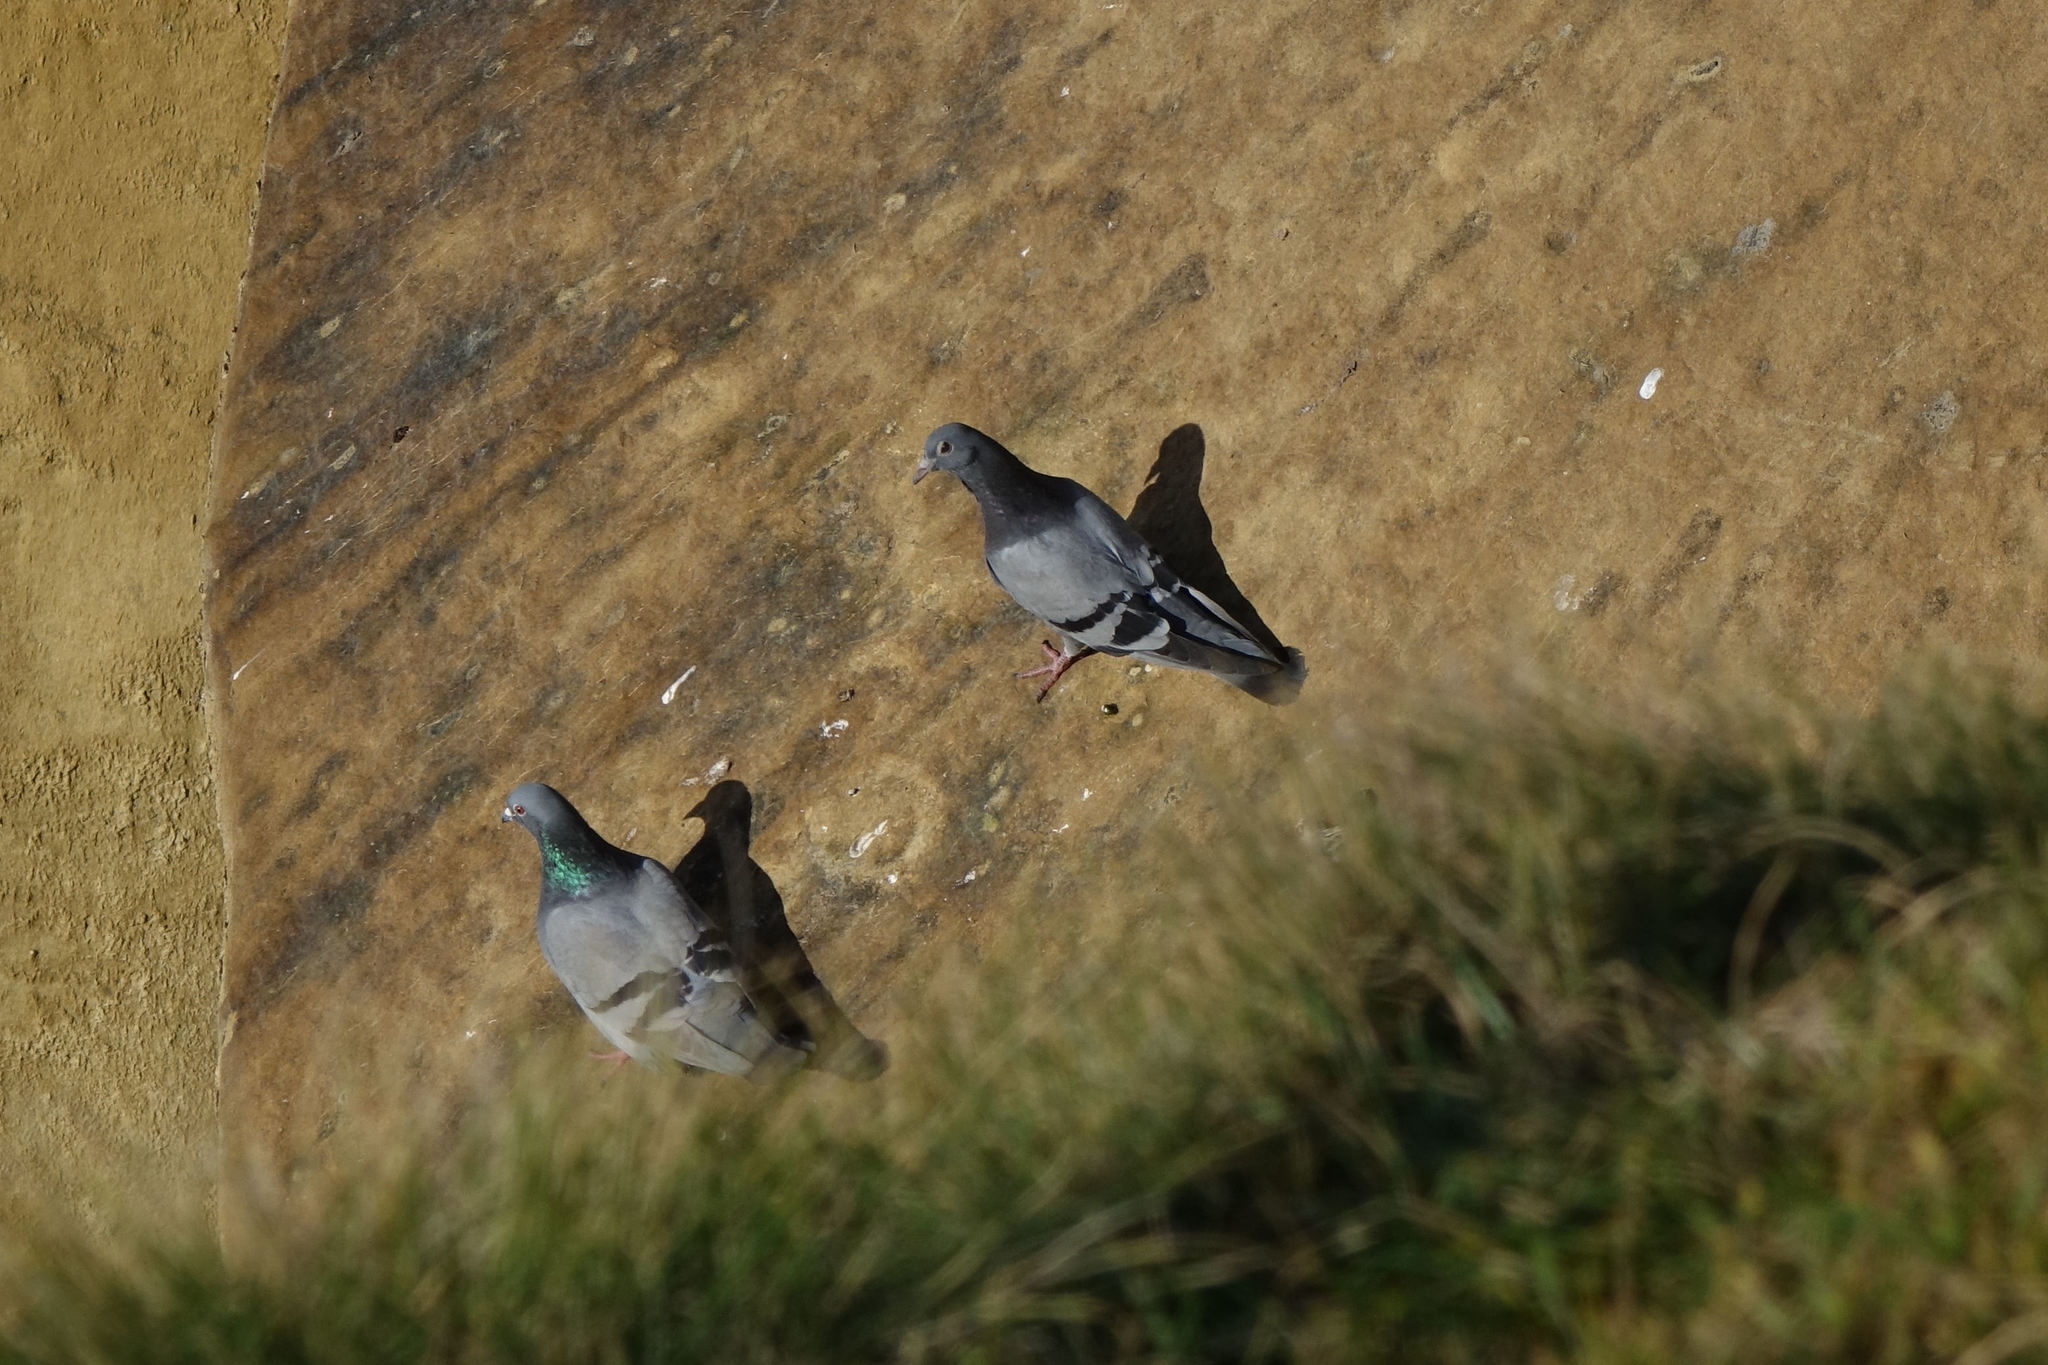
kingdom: Animalia
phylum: Chordata
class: Aves
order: Columbiformes
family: Columbidae
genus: Columba
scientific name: Columba livia
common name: Rock pigeon
